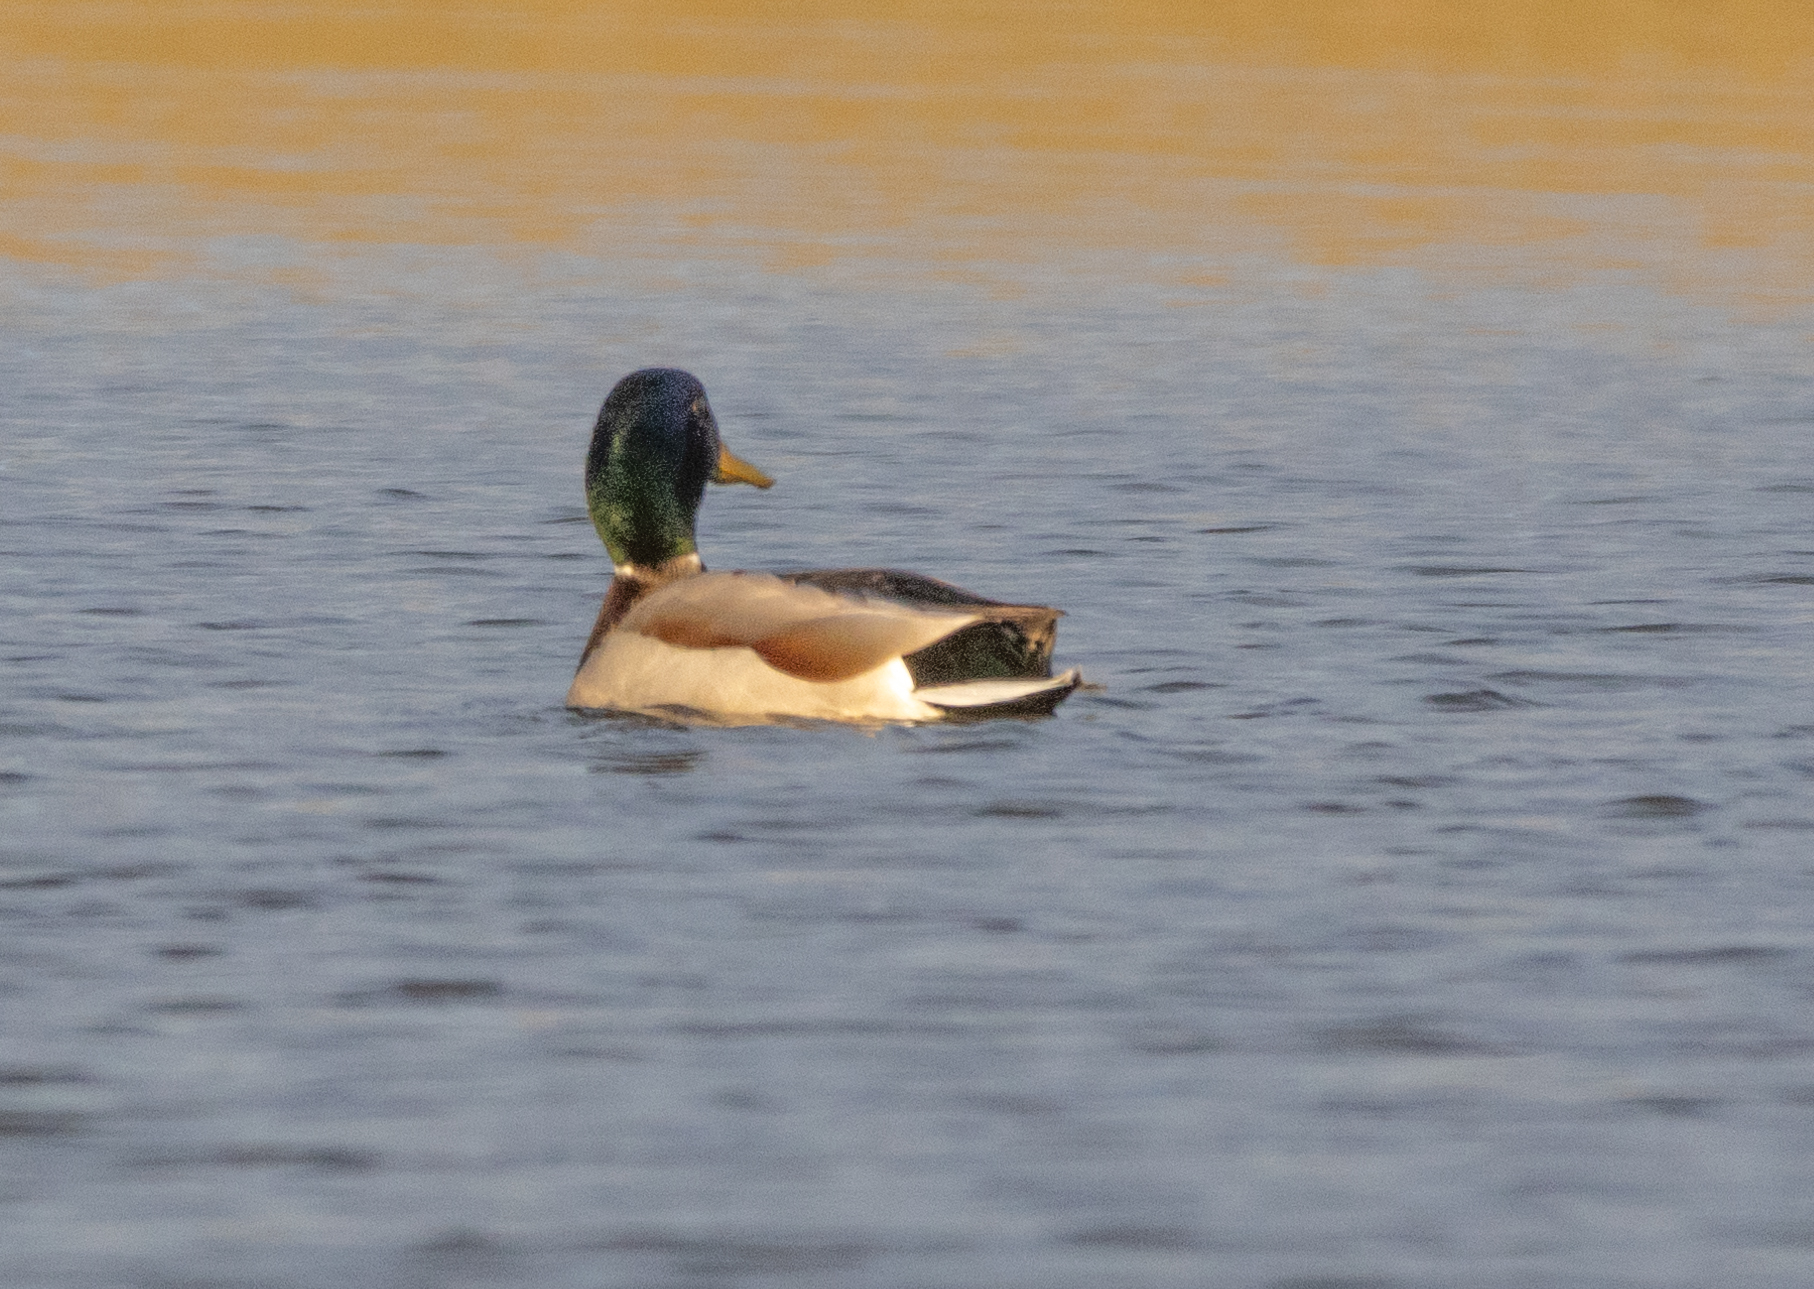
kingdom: Animalia
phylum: Chordata
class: Aves
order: Anseriformes
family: Anatidae
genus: Anas
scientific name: Anas platyrhynchos
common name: Mallard
